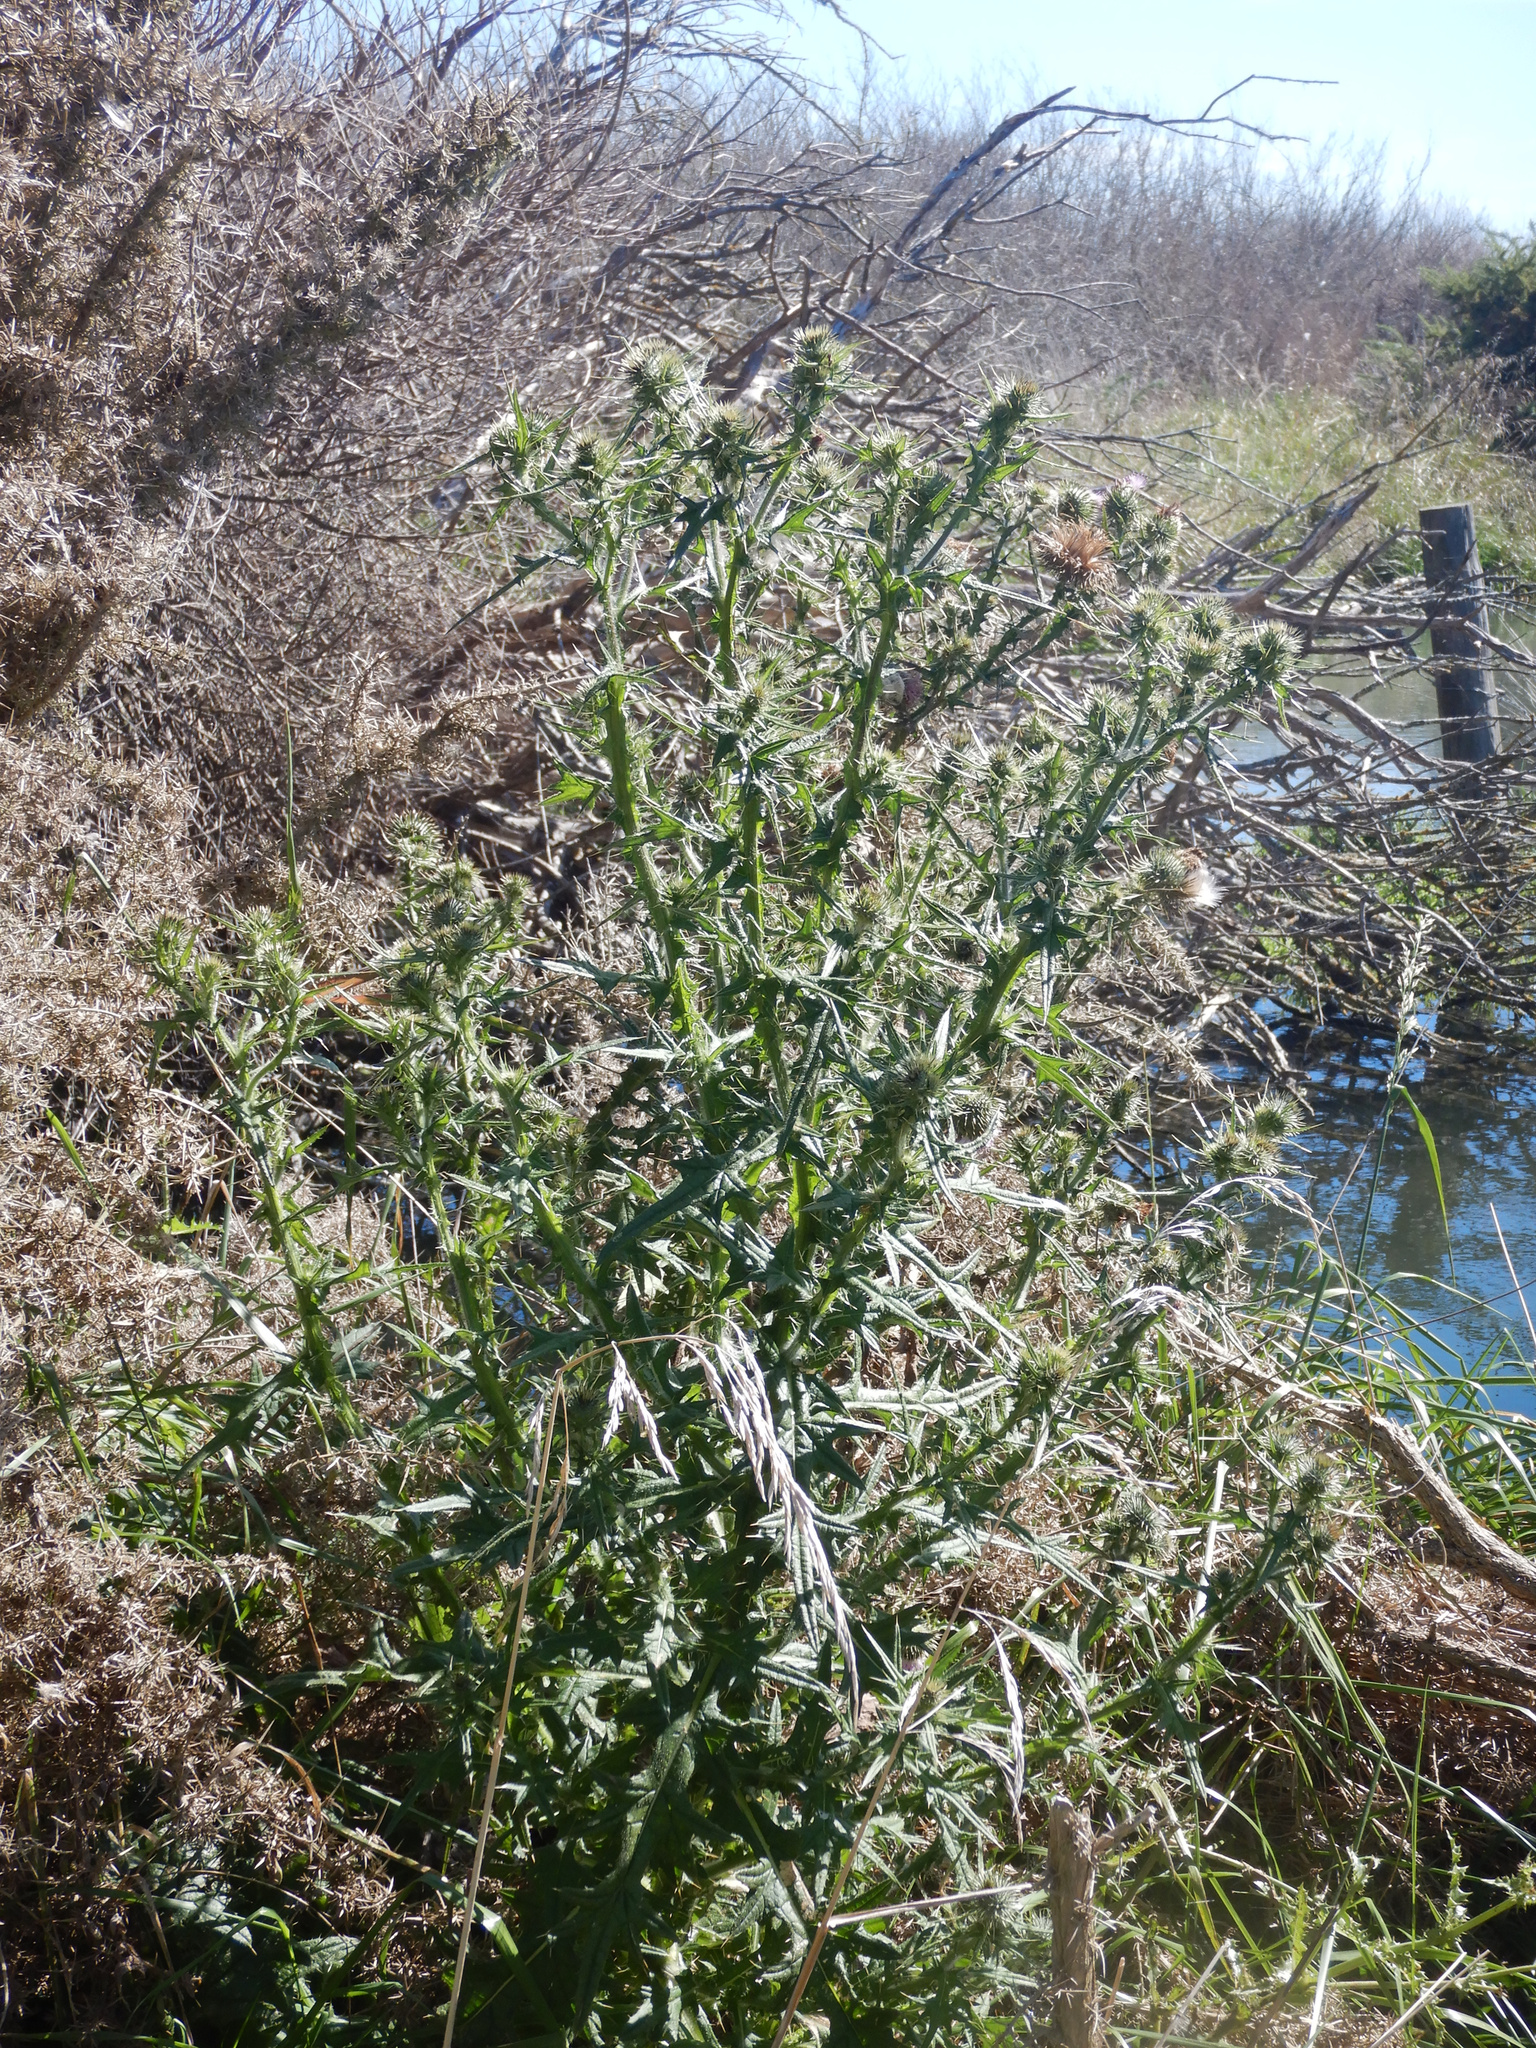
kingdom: Plantae
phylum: Tracheophyta
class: Magnoliopsida
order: Asterales
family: Asteraceae
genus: Cirsium
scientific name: Cirsium vulgare
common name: Bull thistle
